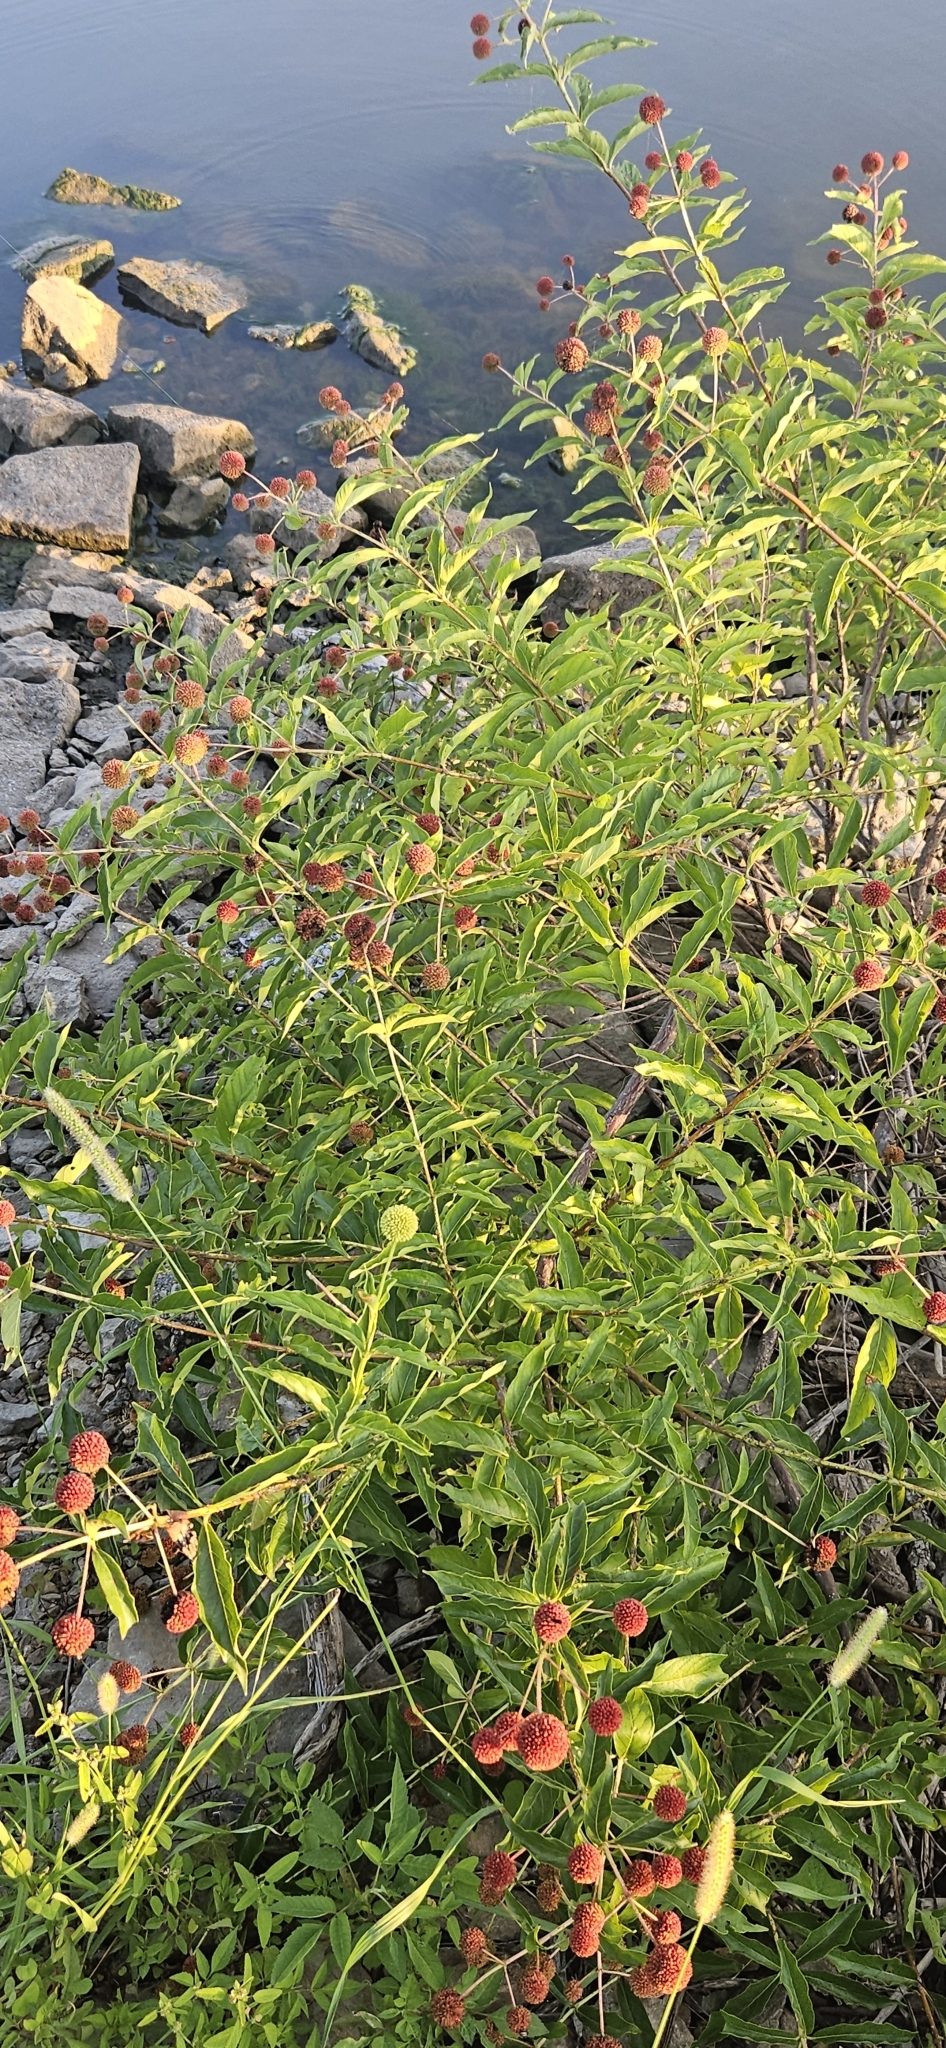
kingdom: Plantae
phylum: Tracheophyta
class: Magnoliopsida
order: Gentianales
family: Rubiaceae
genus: Cephalanthus
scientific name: Cephalanthus occidentalis
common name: Button-willow
